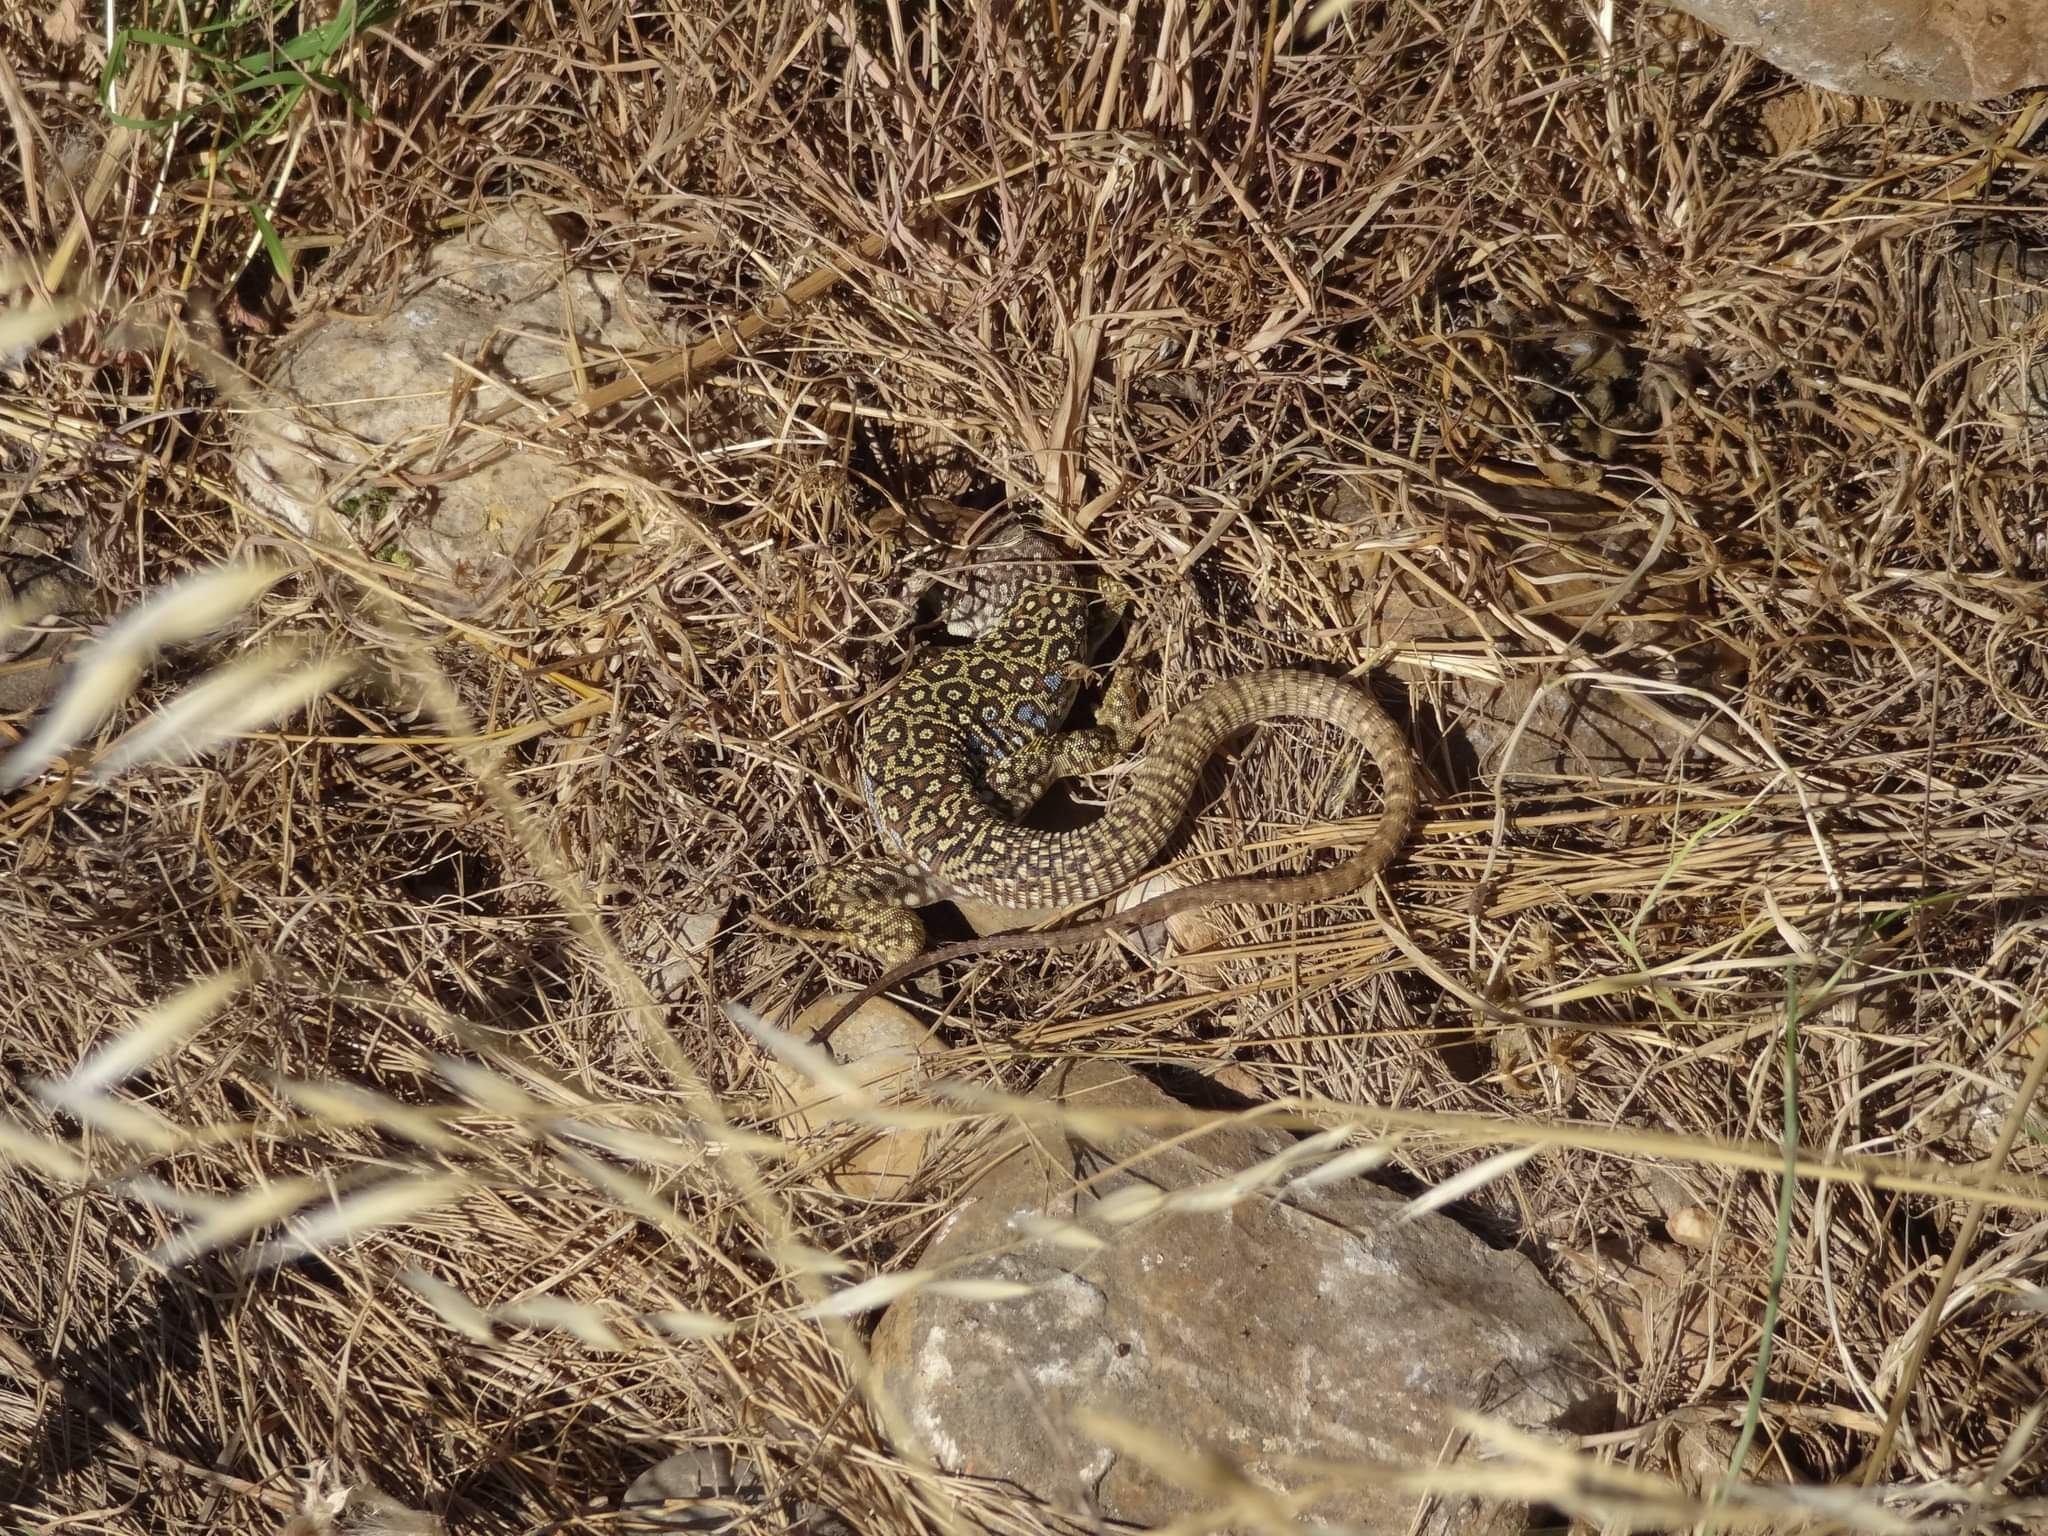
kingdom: Animalia
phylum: Chordata
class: Squamata
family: Lacertidae
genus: Timon
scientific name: Timon lepidus
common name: Ocellated lizard
